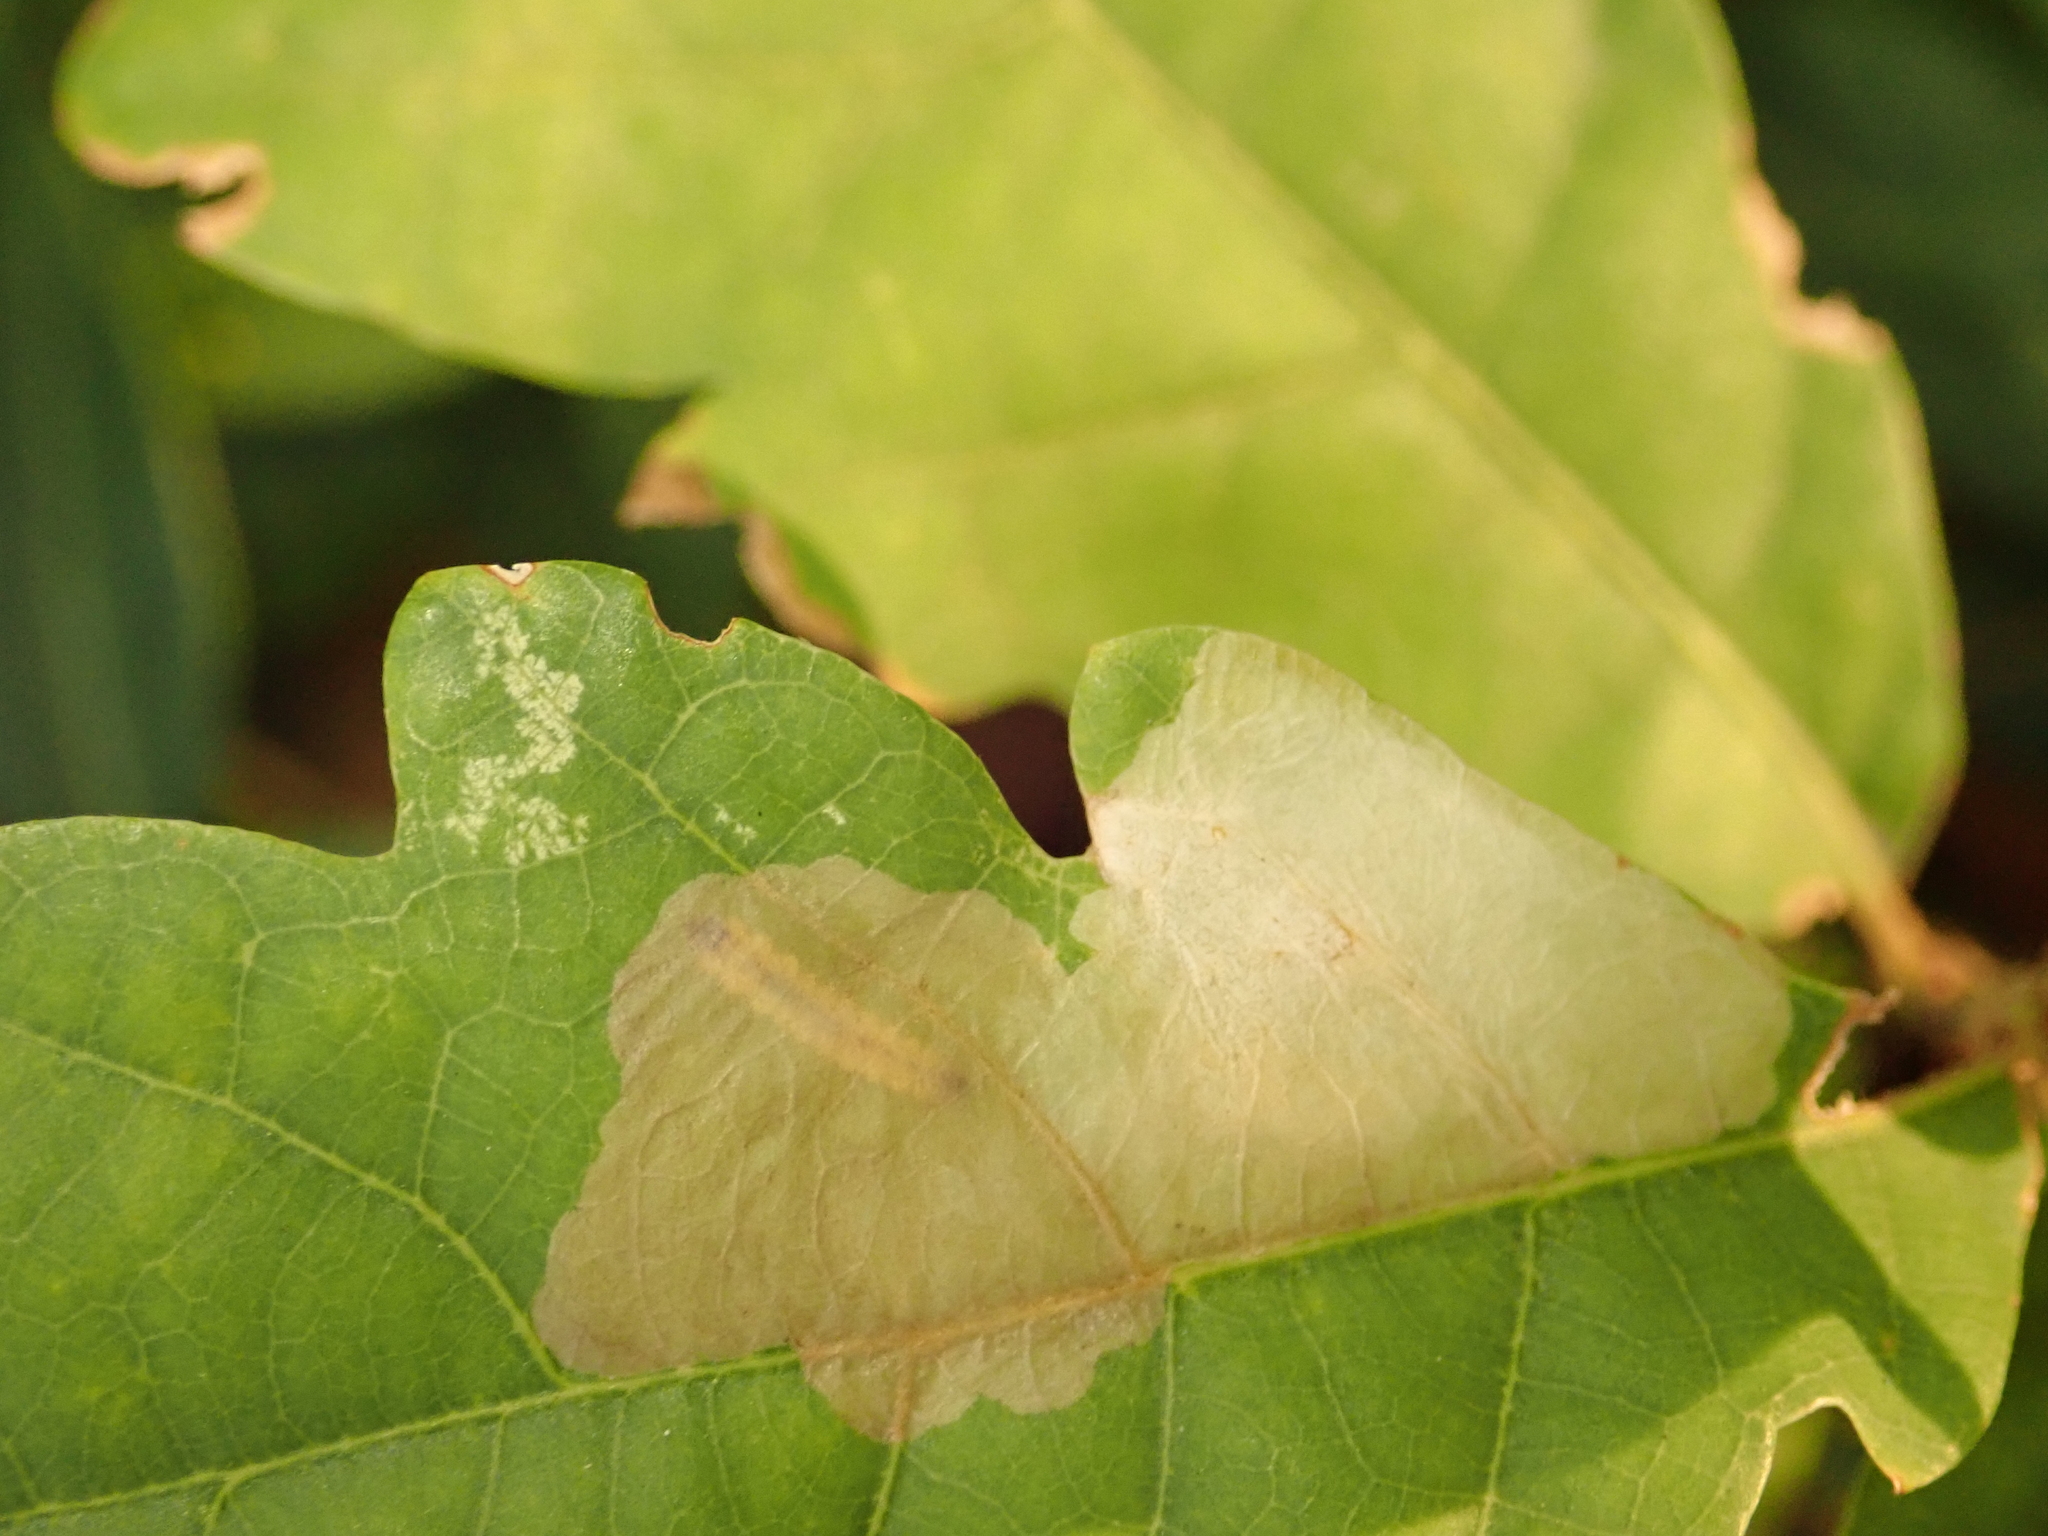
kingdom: Animalia
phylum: Arthropoda
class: Insecta
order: Lepidoptera
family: Tischeriidae
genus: Tischeria
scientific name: Tischeria ekebladella
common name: Oak carl
